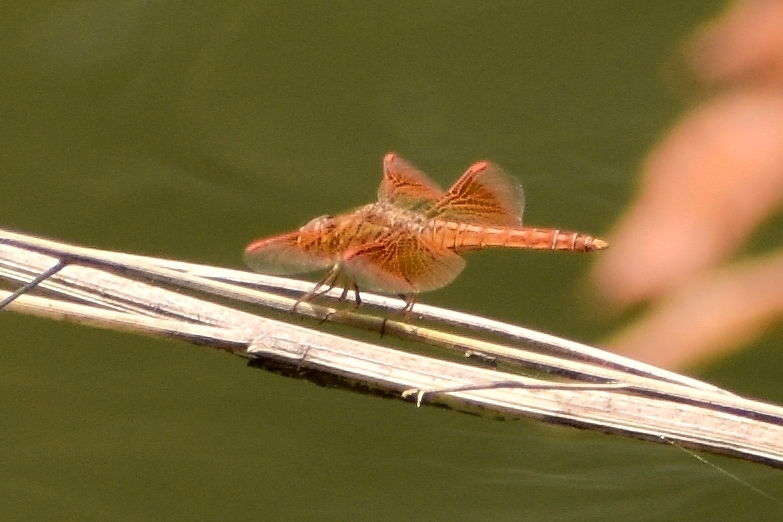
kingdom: Animalia
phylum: Arthropoda
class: Insecta
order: Odonata
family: Libellulidae
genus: Brachythemis
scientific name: Brachythemis contaminata
